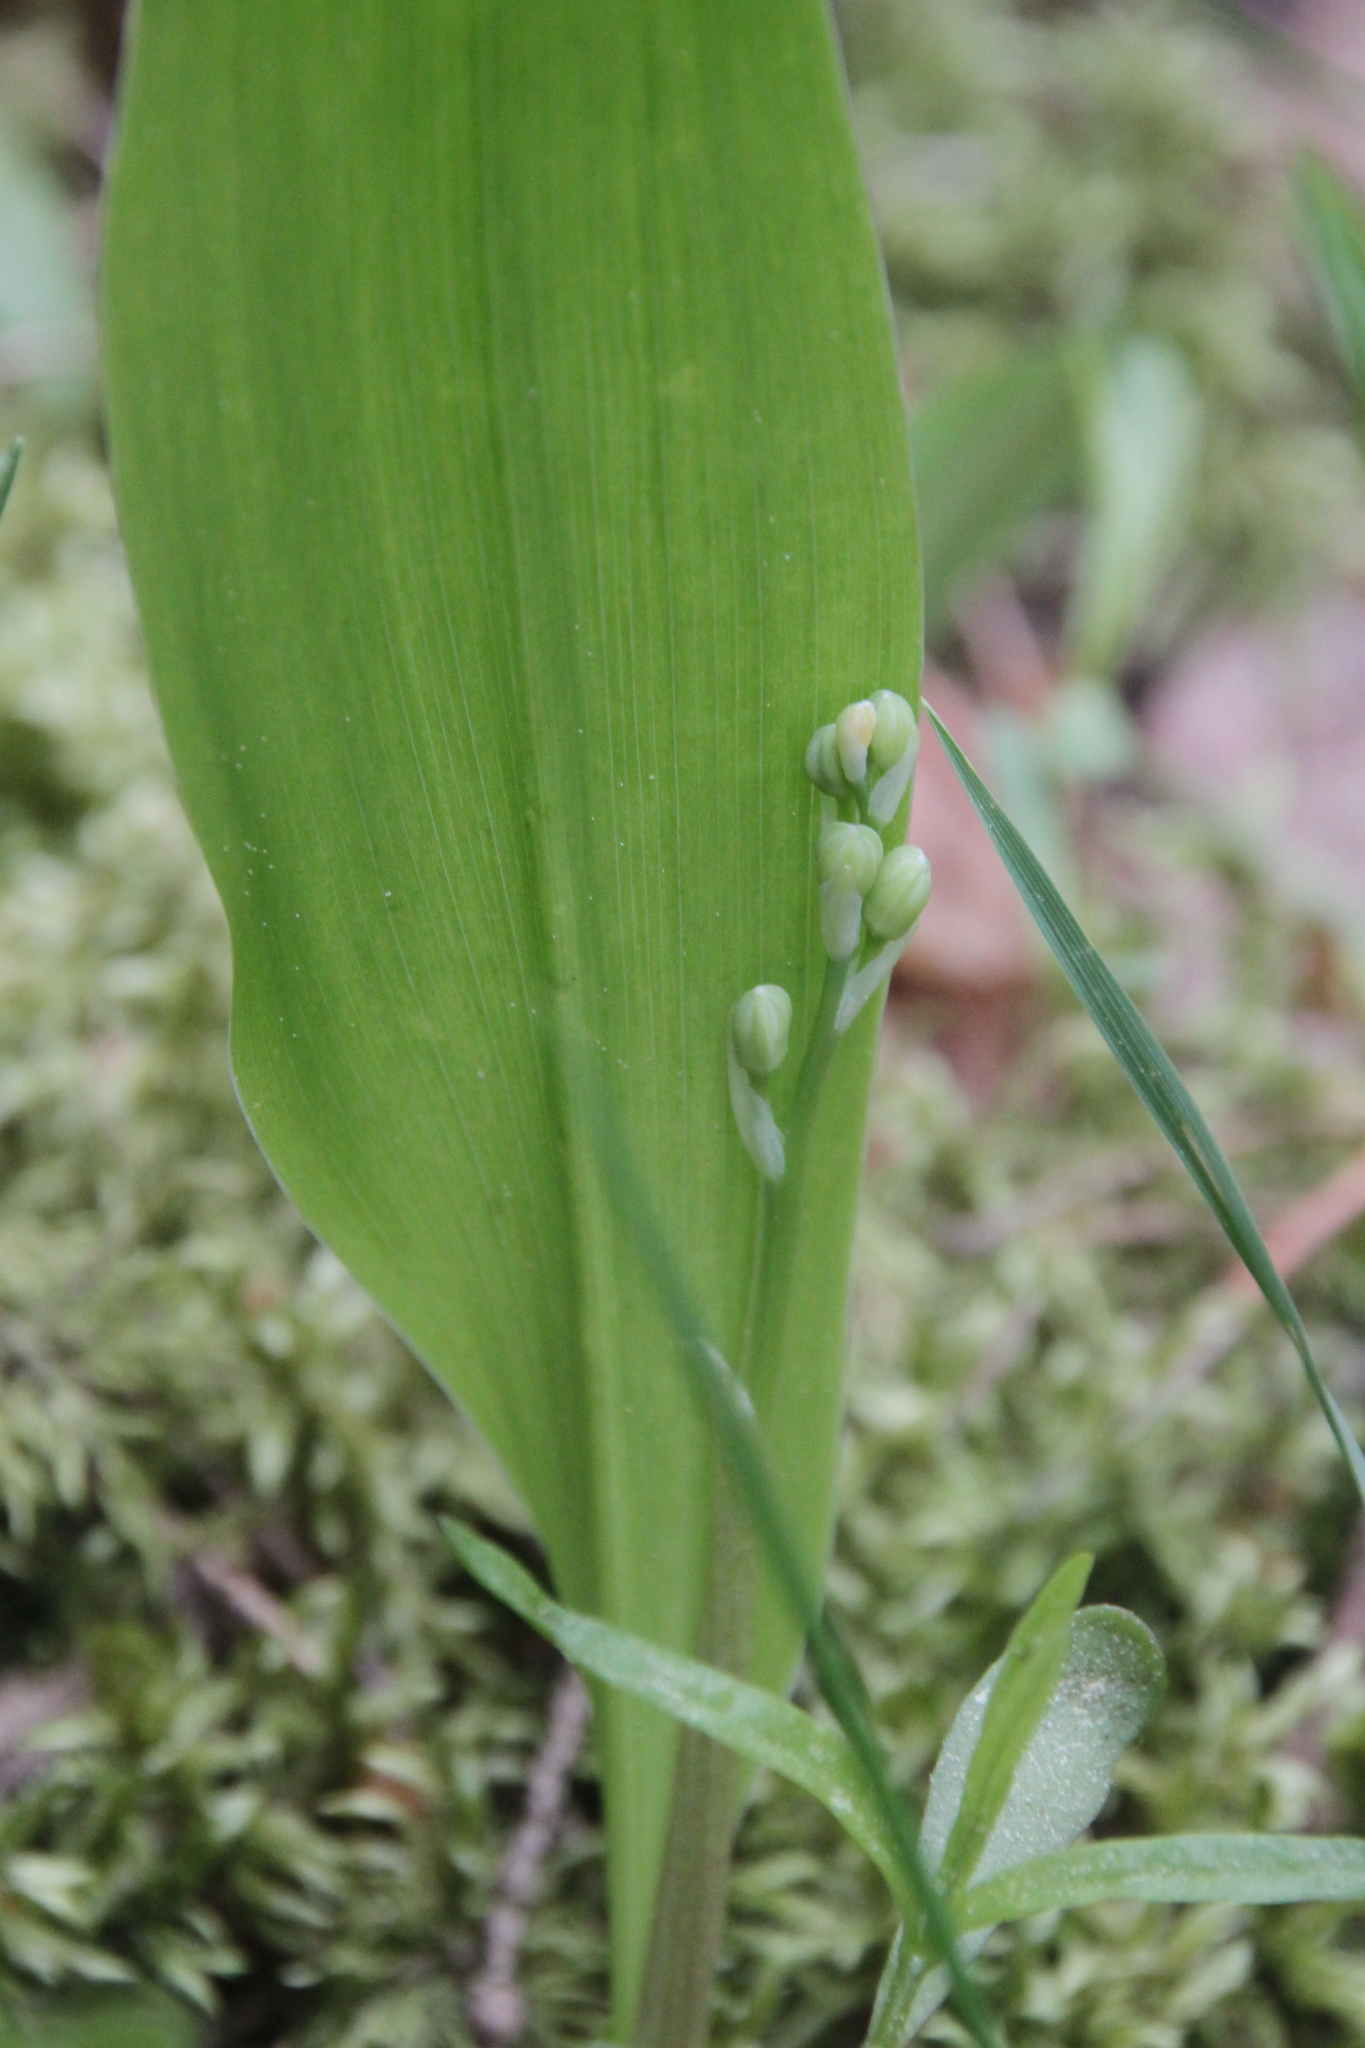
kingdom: Plantae
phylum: Tracheophyta
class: Liliopsida
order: Asparagales
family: Asparagaceae
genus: Convallaria
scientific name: Convallaria majalis
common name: Lily-of-the-valley
